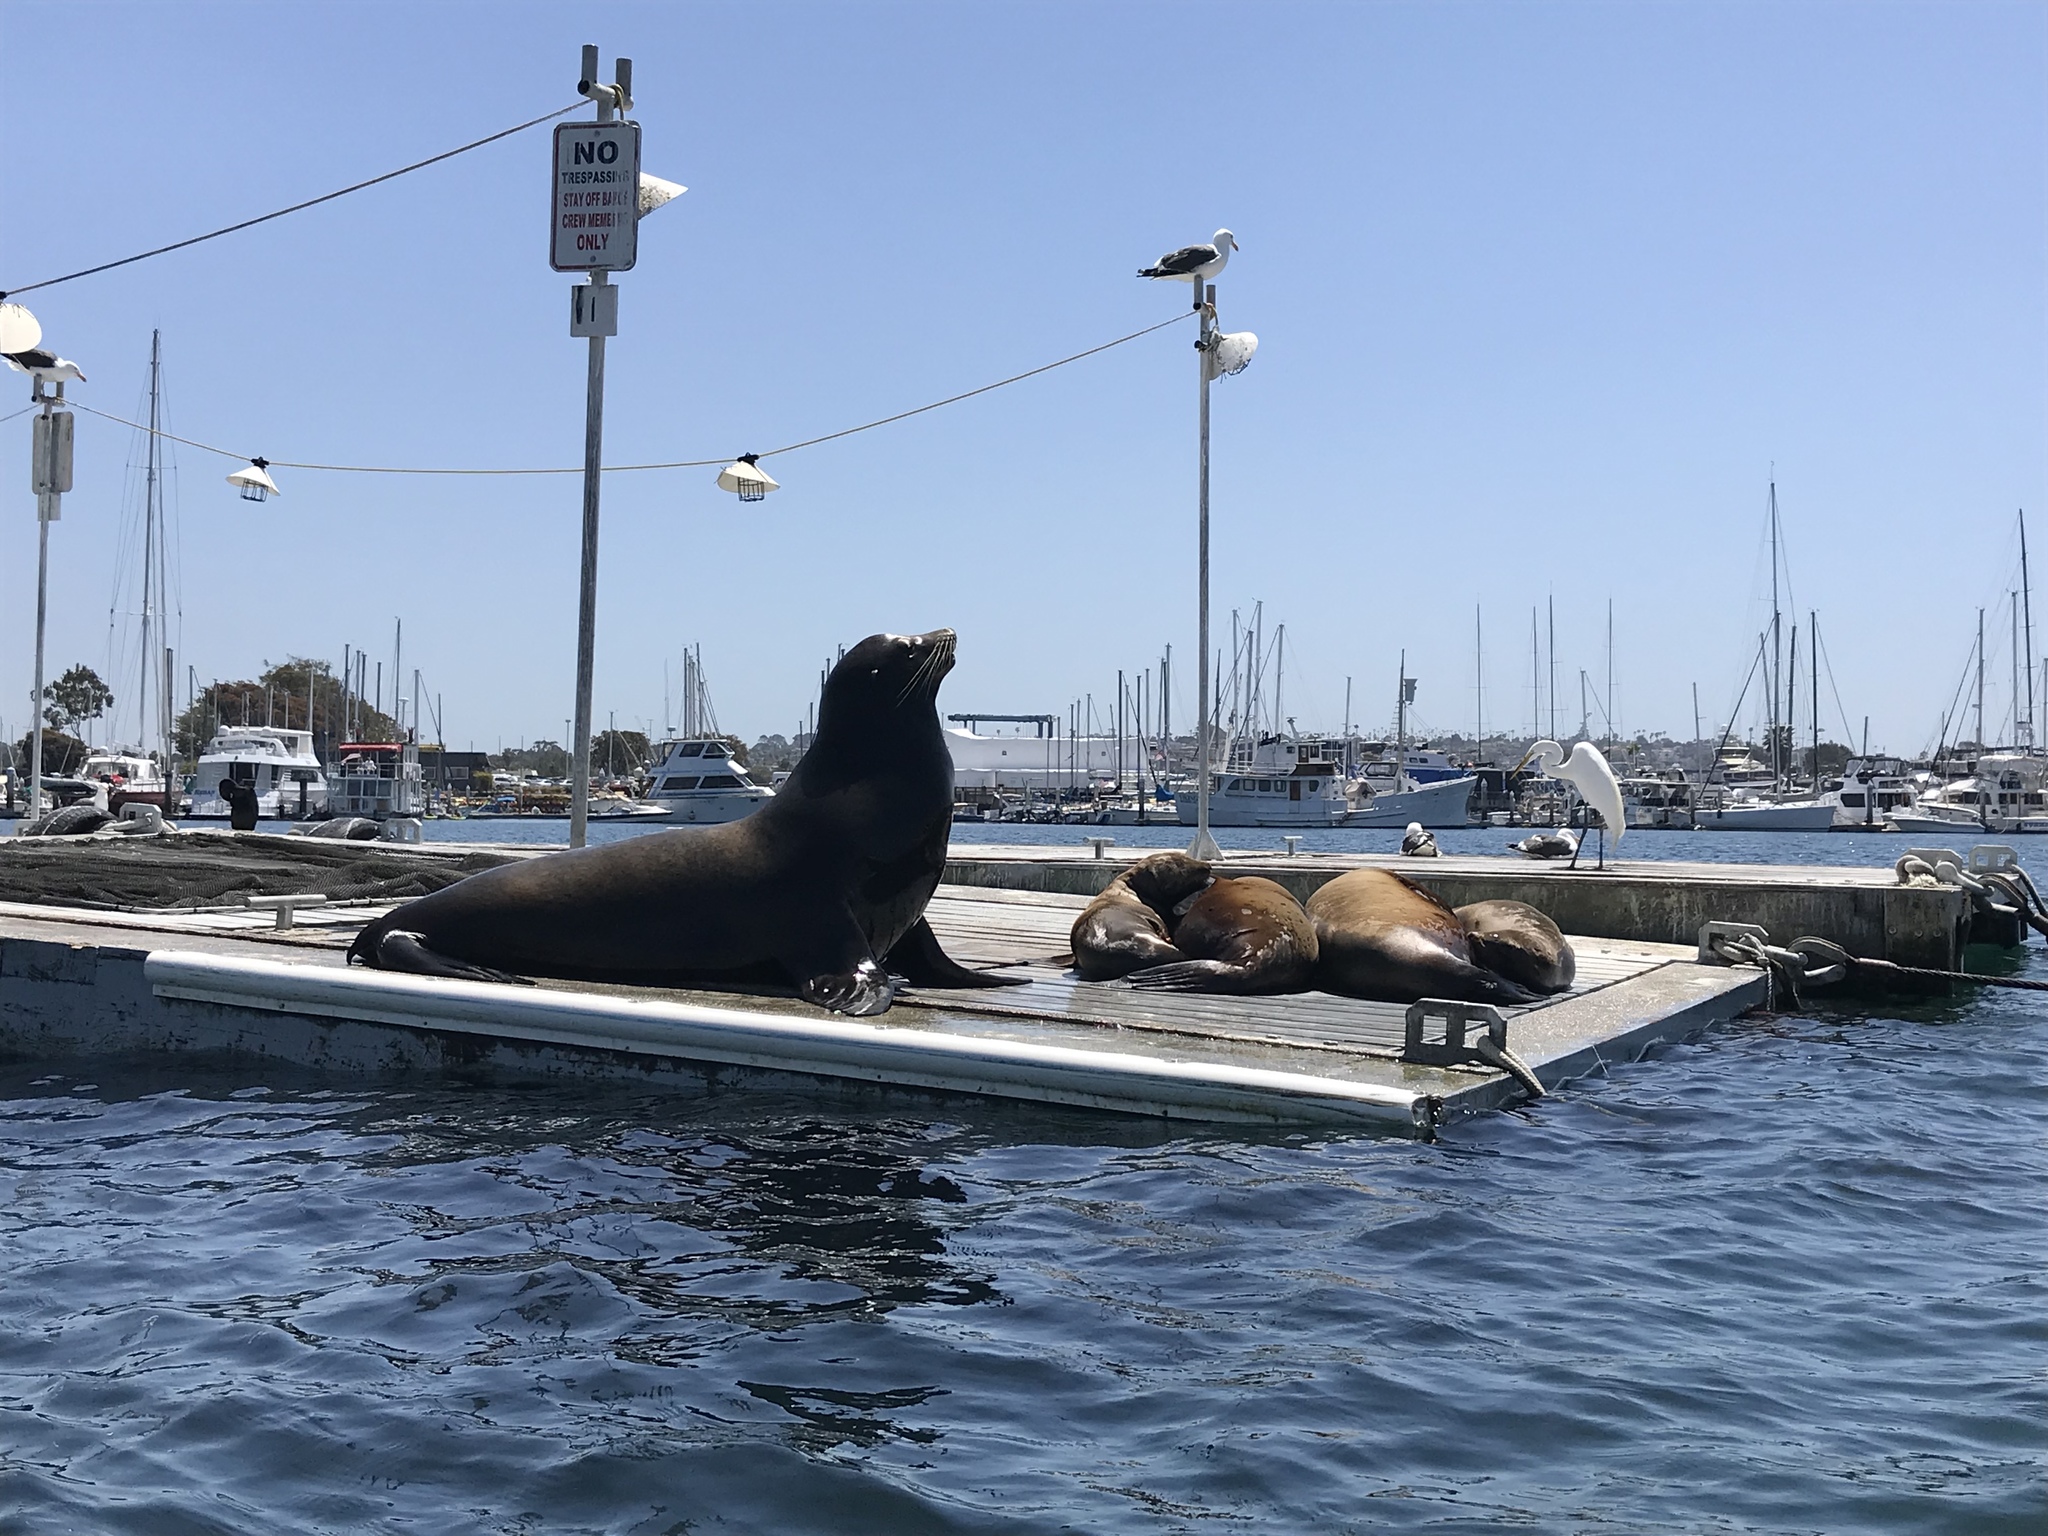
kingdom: Animalia
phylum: Chordata
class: Mammalia
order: Carnivora
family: Otariidae
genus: Zalophus
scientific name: Zalophus californianus
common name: California sea lion
